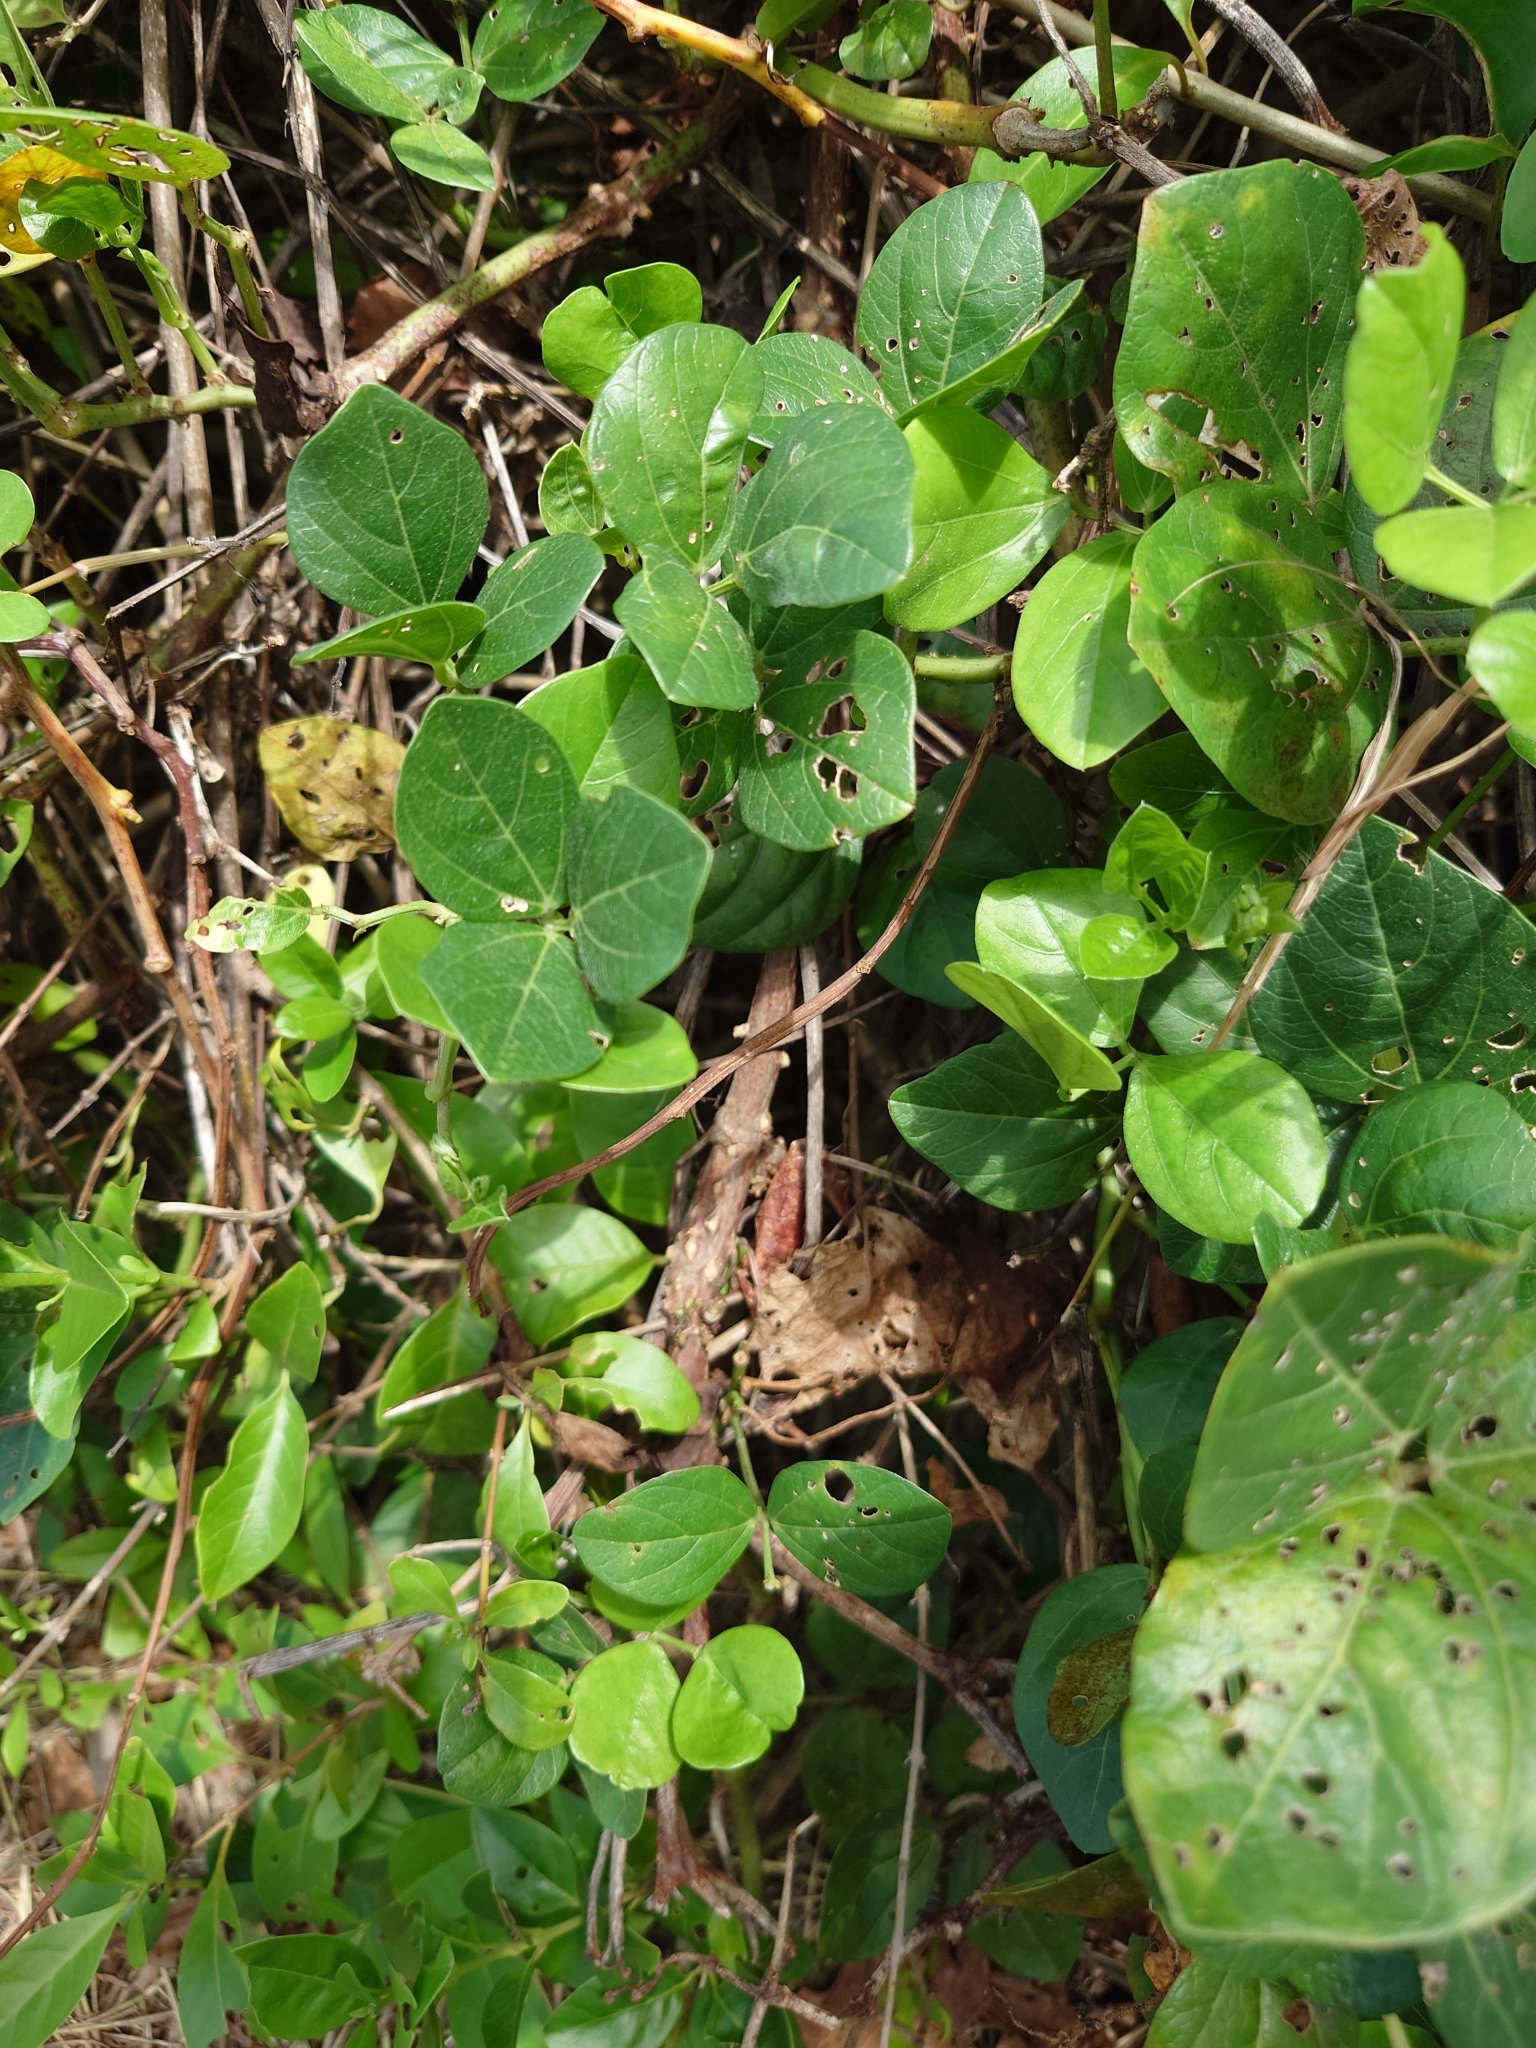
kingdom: Plantae
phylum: Tracheophyta
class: Magnoliopsida
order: Fabales
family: Fabaceae
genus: Vigna
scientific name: Vigna marina
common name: Dune-bean
